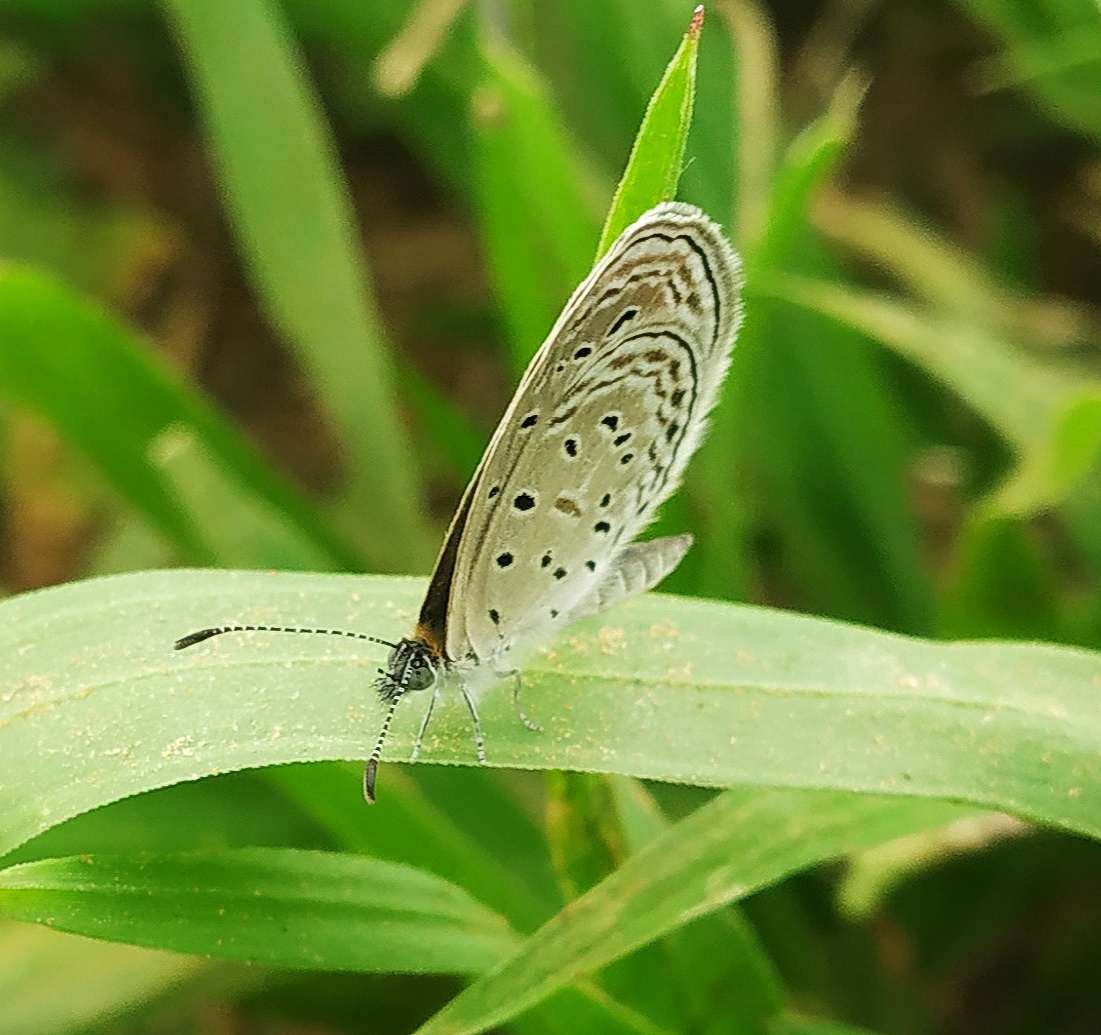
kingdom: Animalia
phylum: Arthropoda
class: Insecta
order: Lepidoptera
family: Lycaenidae
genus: Zizula
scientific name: Zizula hylax
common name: Gaika blue
